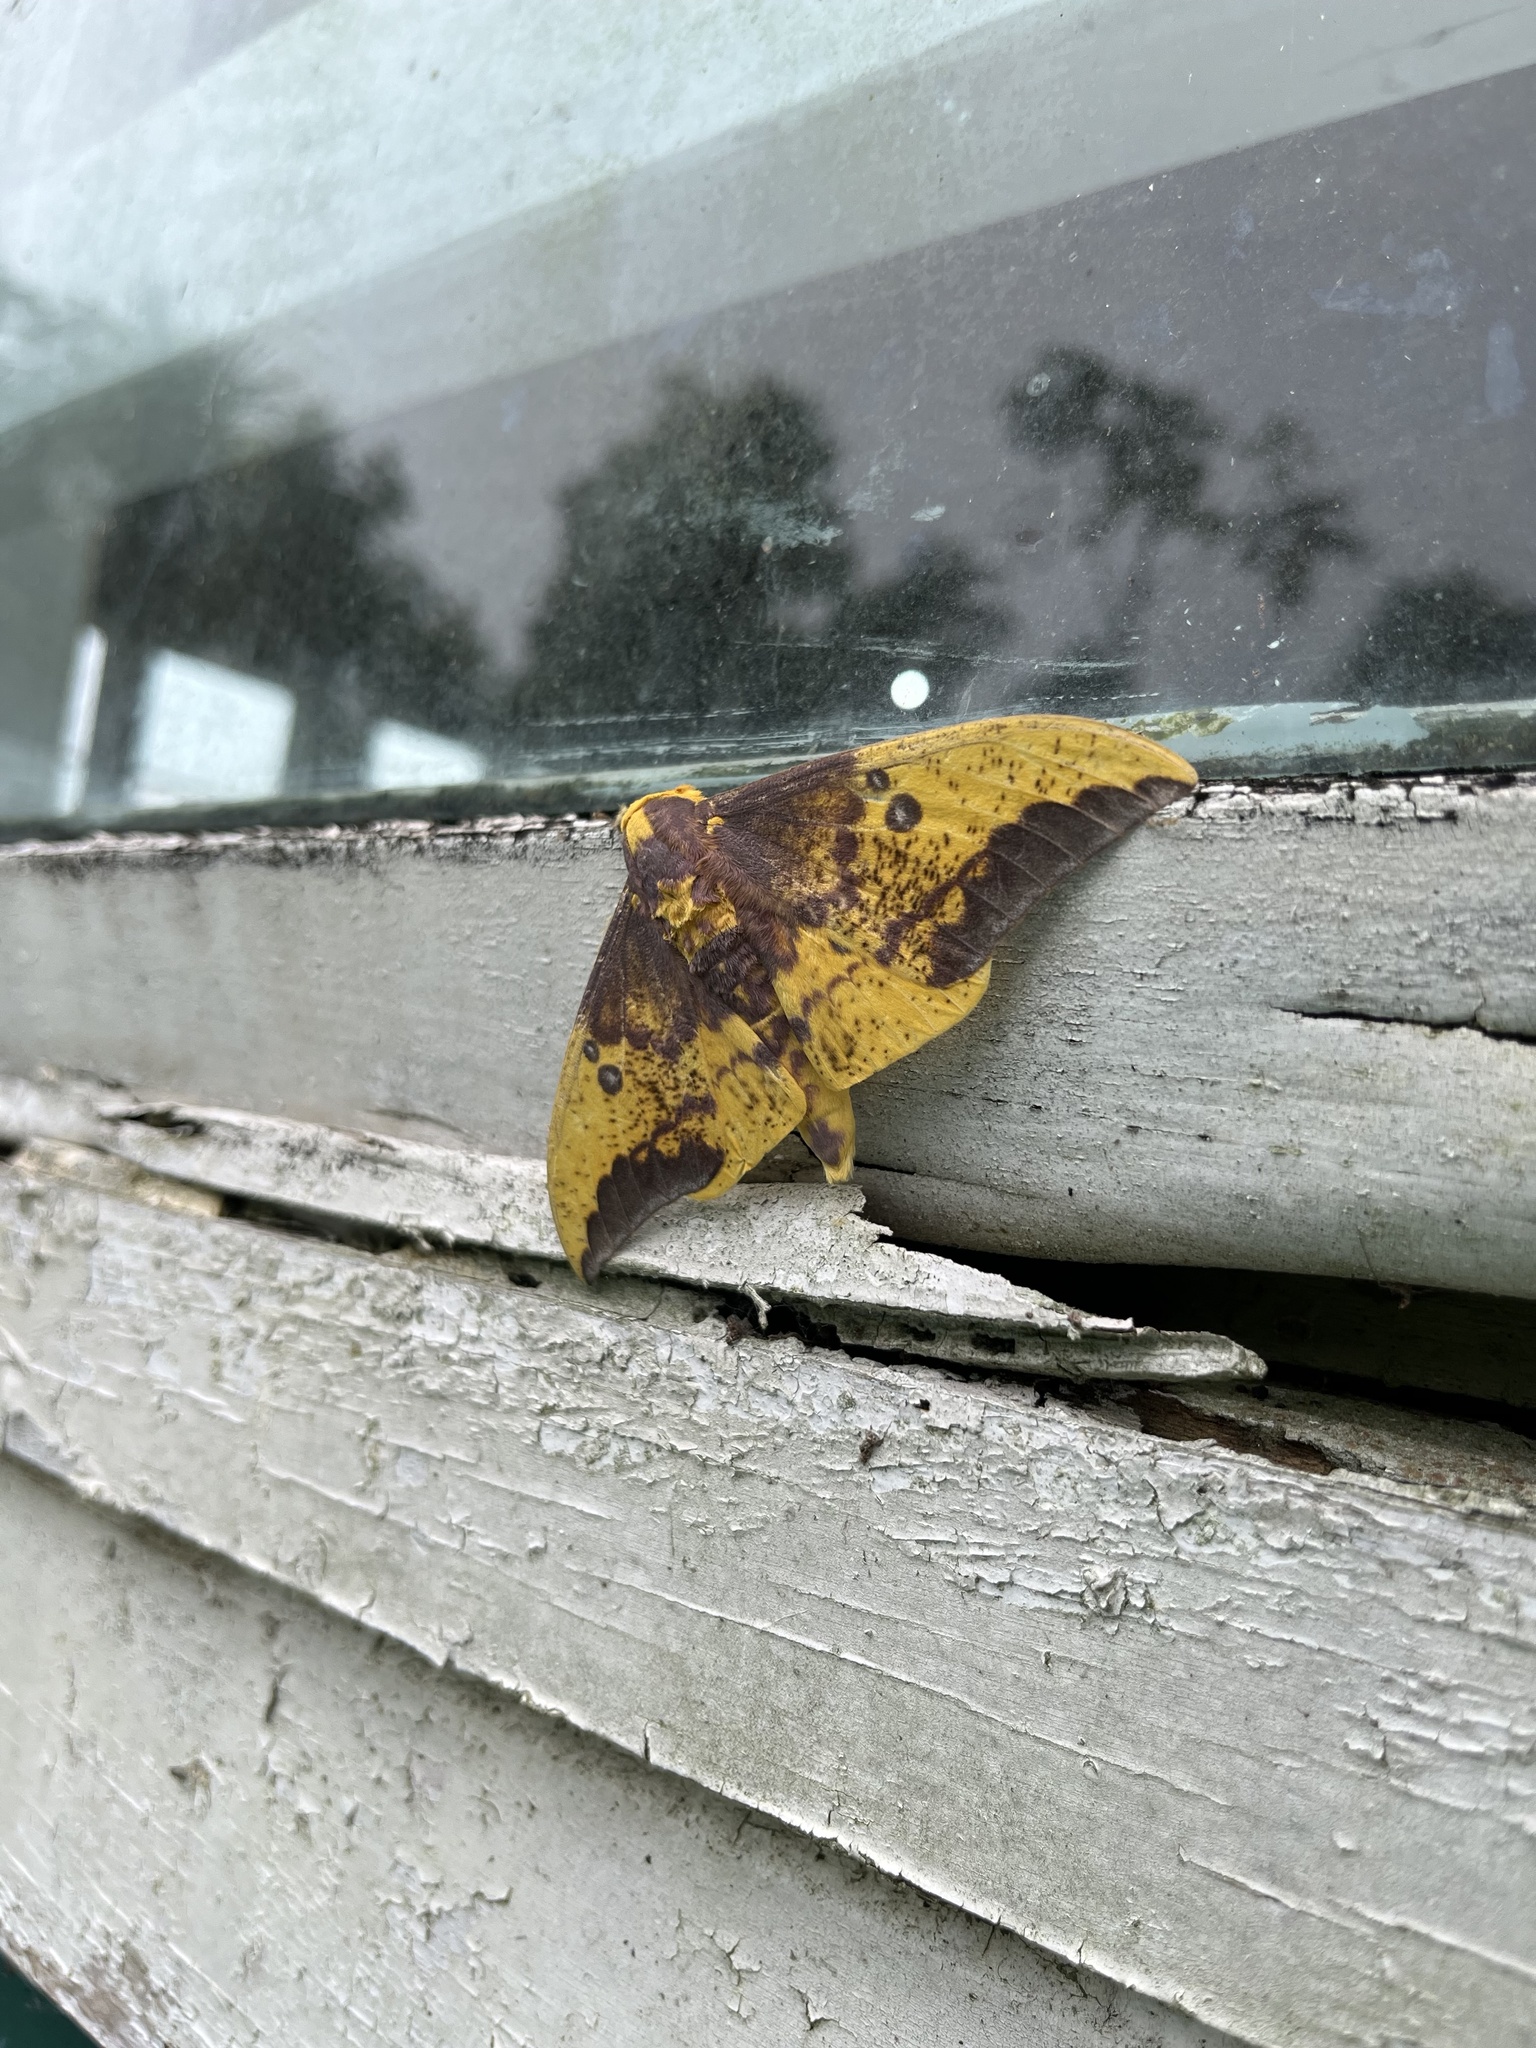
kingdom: Animalia
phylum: Arthropoda
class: Insecta
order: Lepidoptera
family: Saturniidae
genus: Eacles
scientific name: Eacles imperialis
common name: Imperial moth
